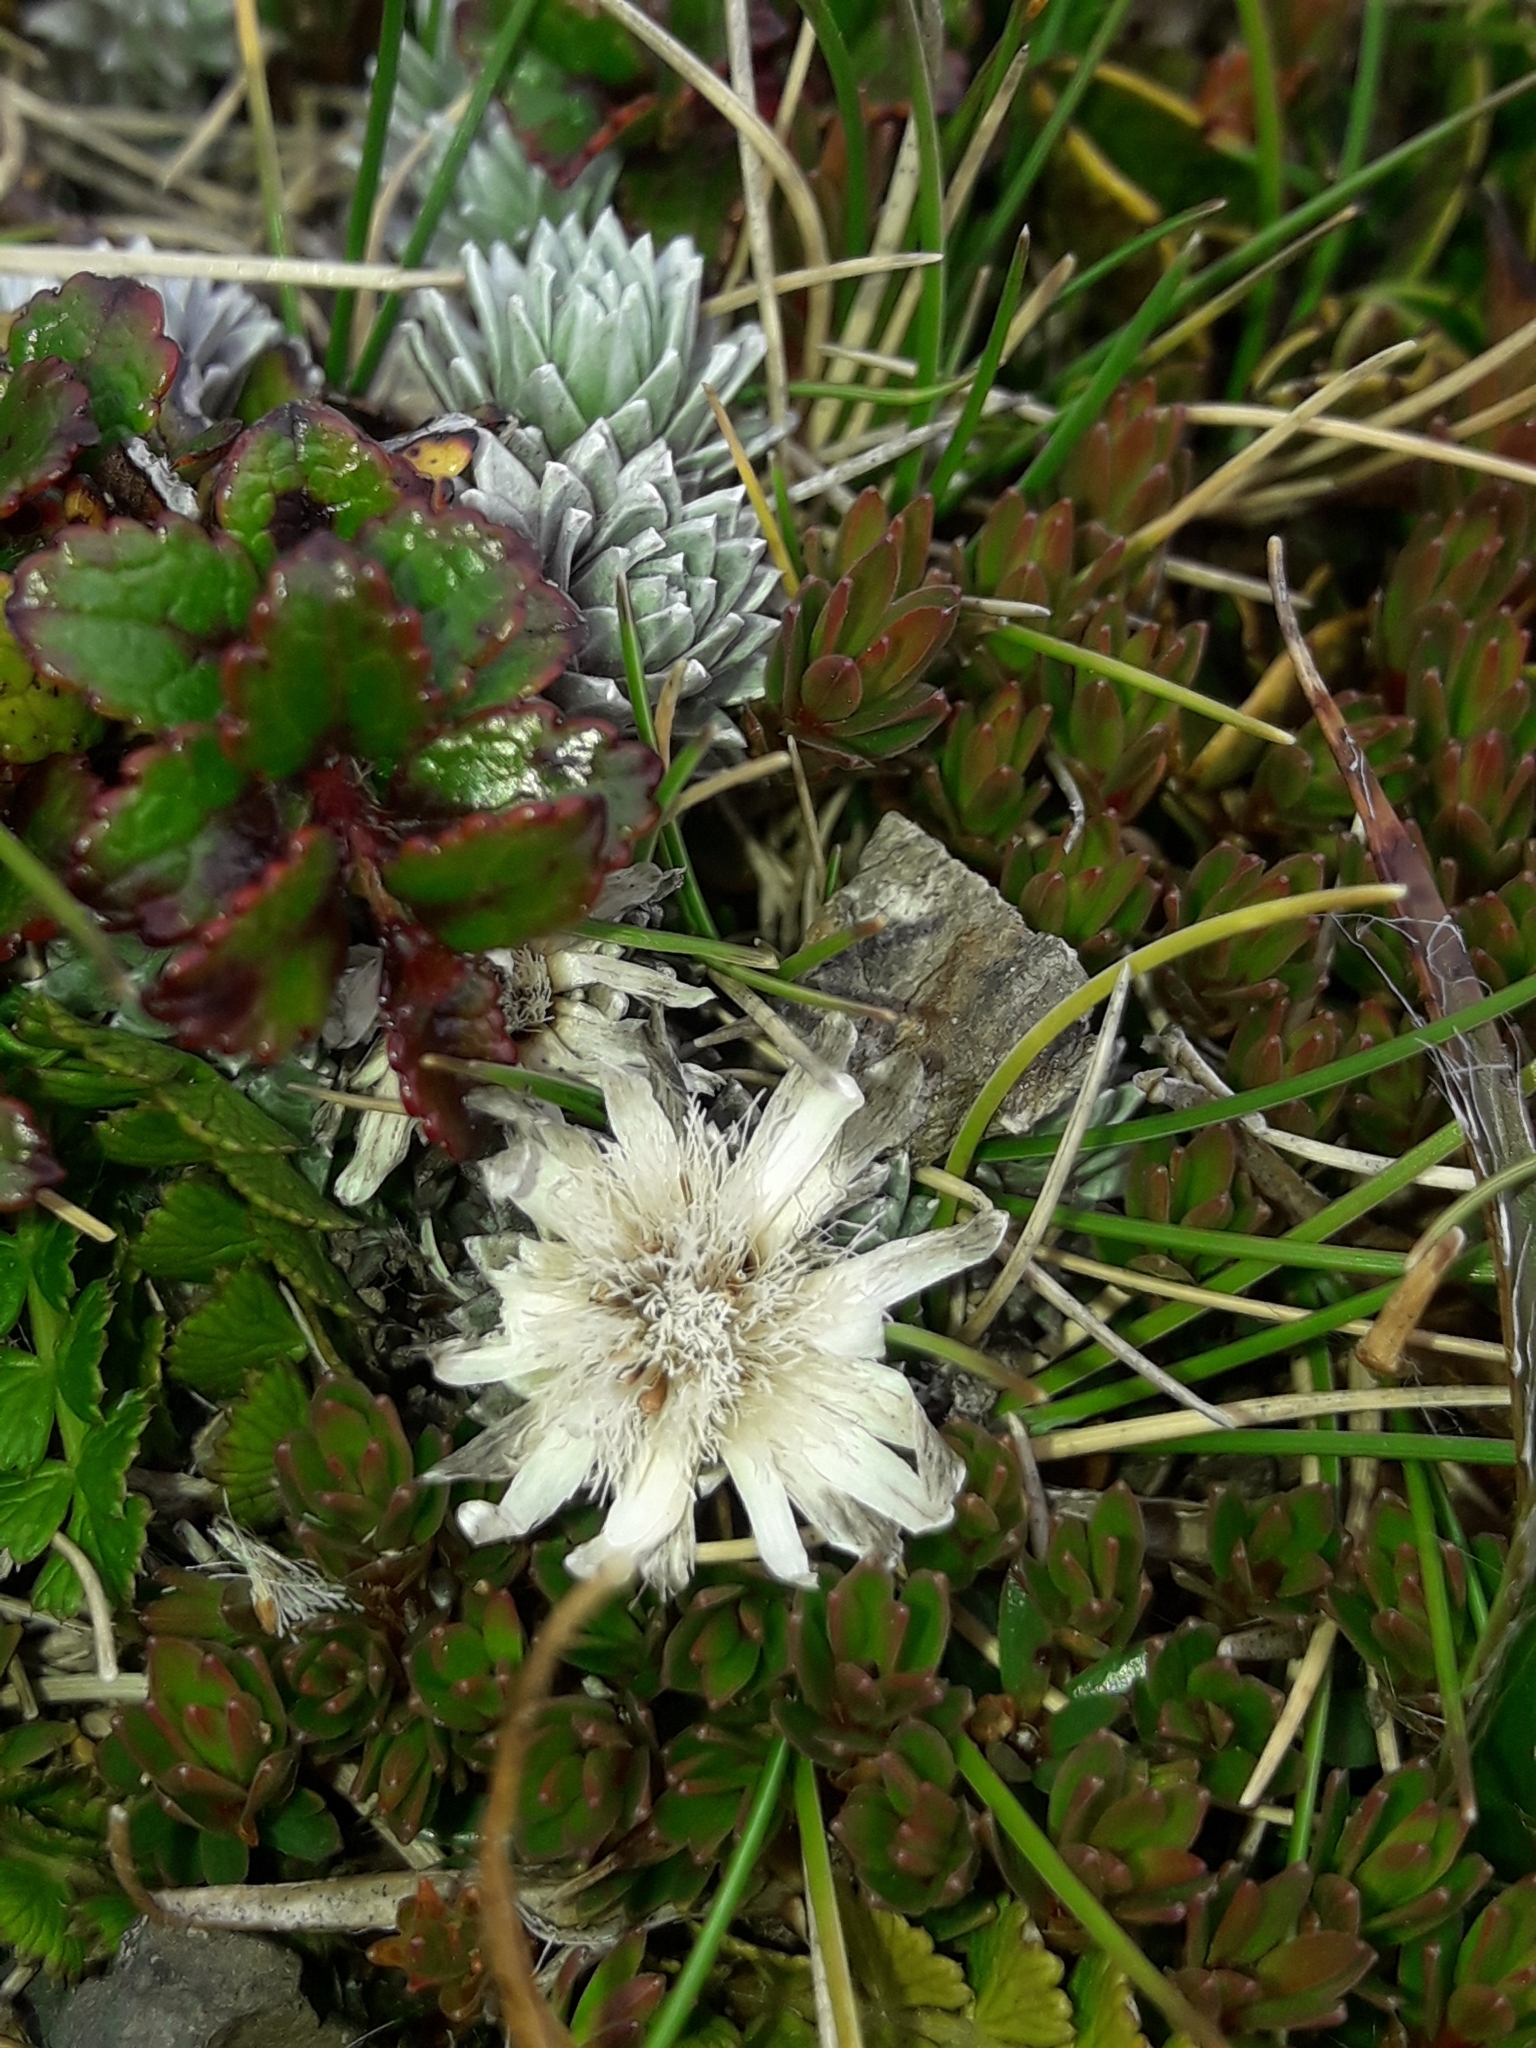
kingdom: Plantae
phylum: Tracheophyta
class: Magnoliopsida
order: Asterales
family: Asteraceae
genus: Raoulia
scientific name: Raoulia grandiflora
